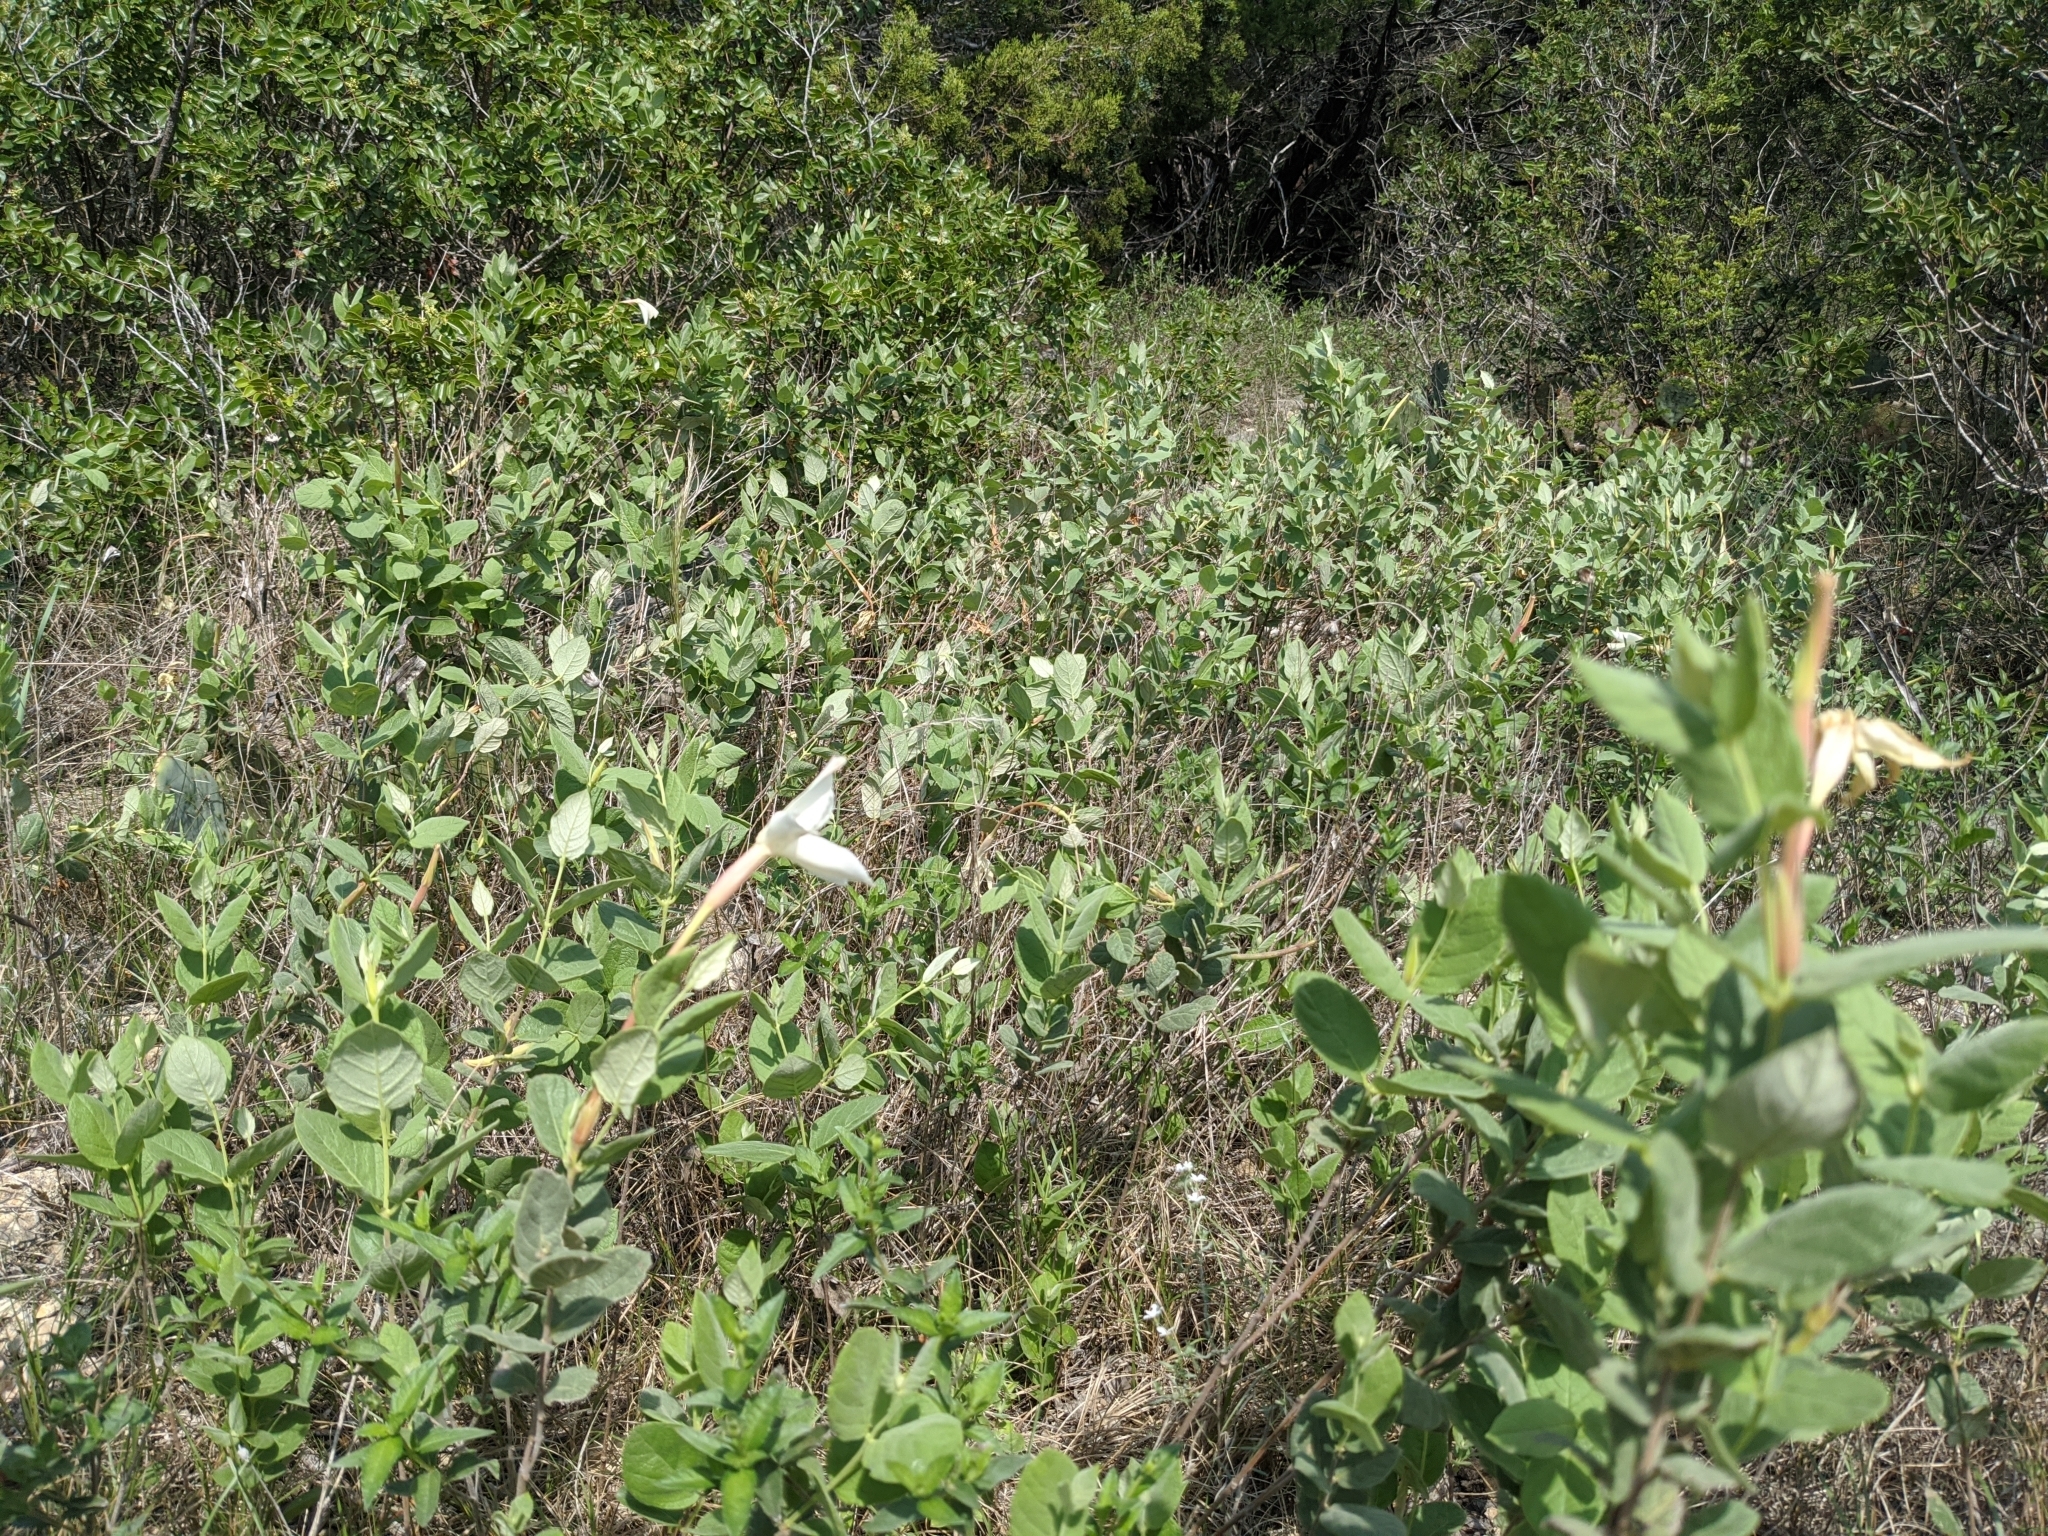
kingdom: Plantae
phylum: Tracheophyta
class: Magnoliopsida
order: Gentianales
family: Apocynaceae
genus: Mandevilla
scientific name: Mandevilla macrosiphon
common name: Plateau rocktrumpet
